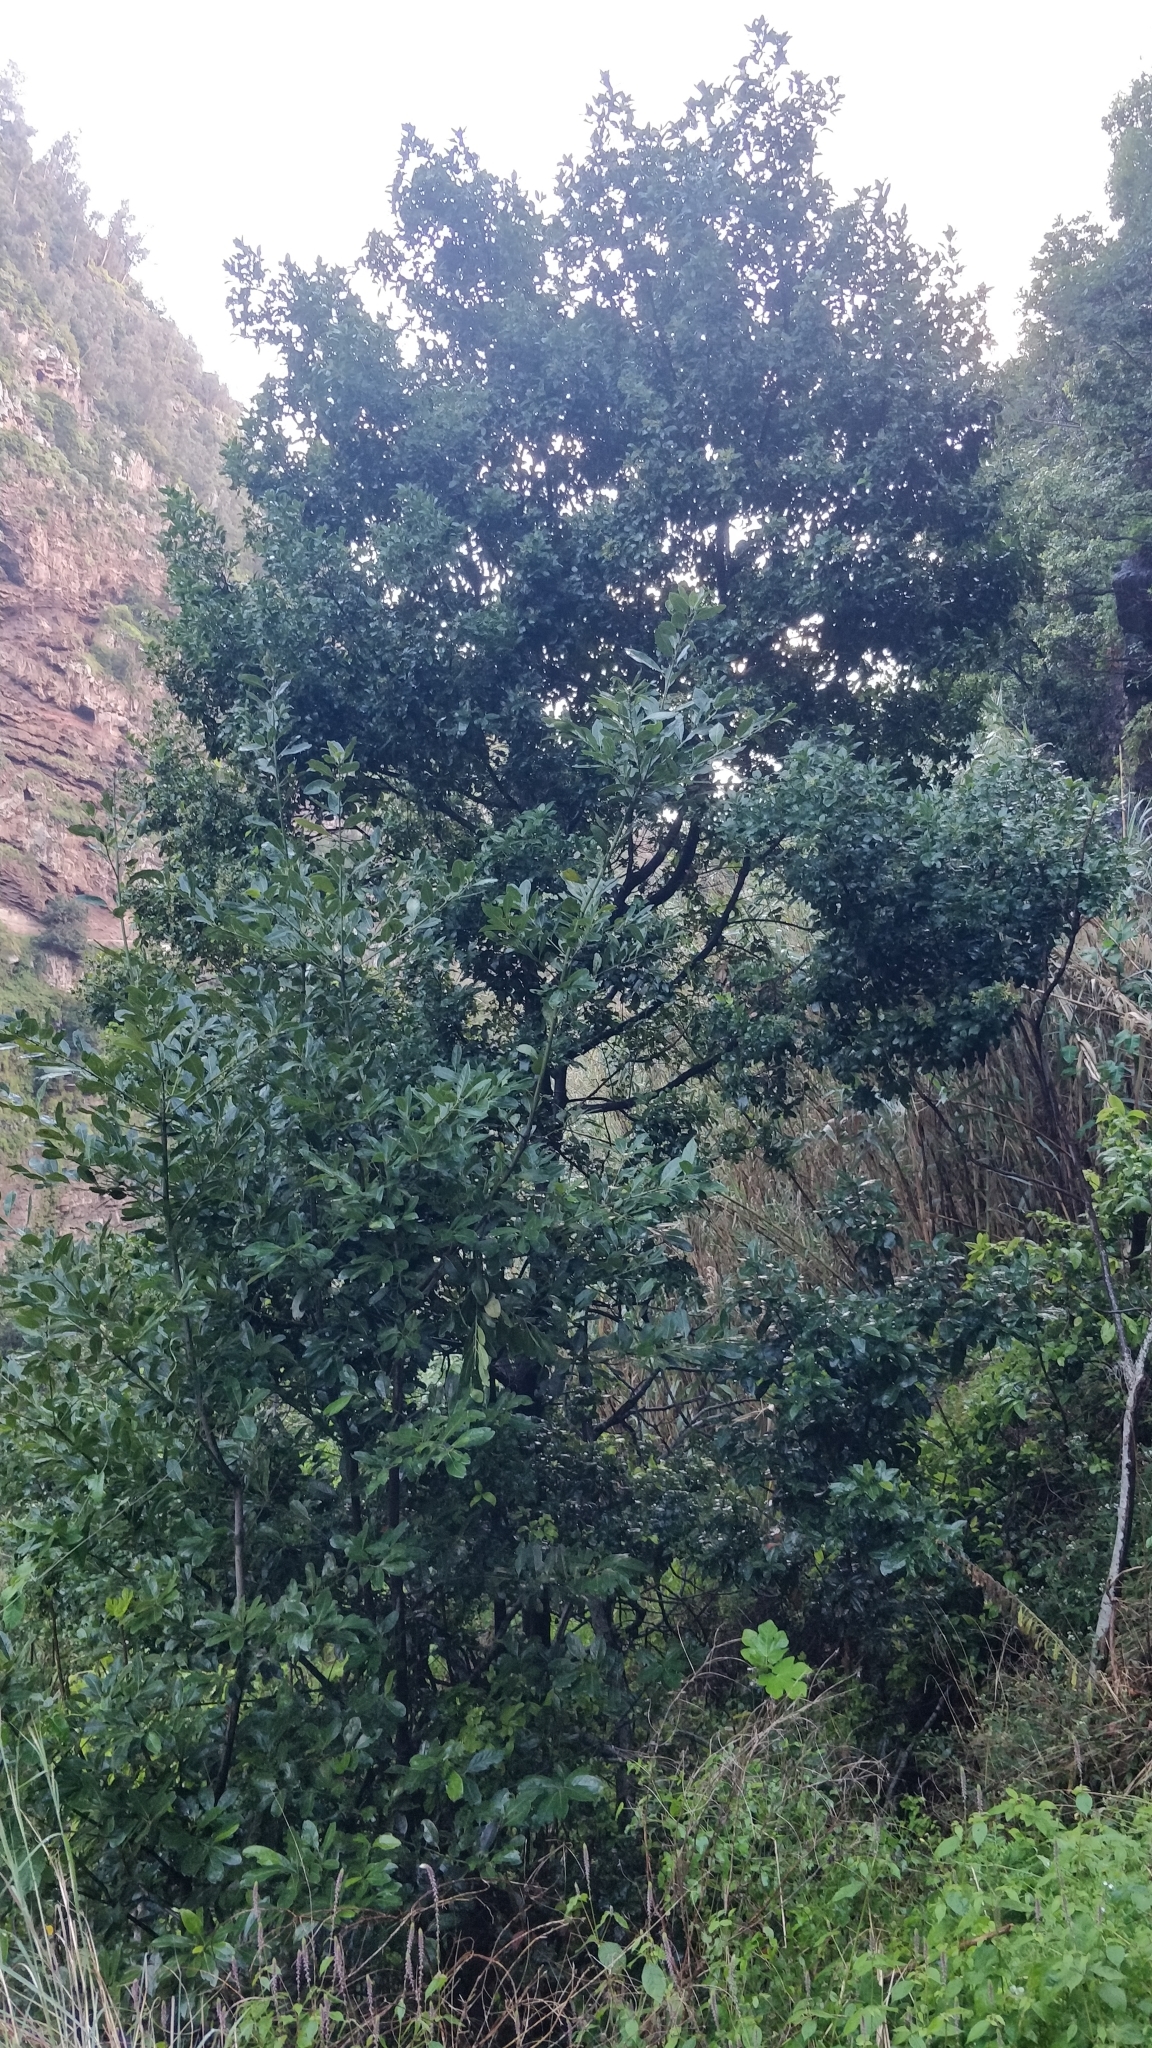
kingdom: Plantae
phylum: Tracheophyta
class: Magnoliopsida
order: Laurales
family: Lauraceae
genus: Laurus
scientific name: Laurus novocanariensis
